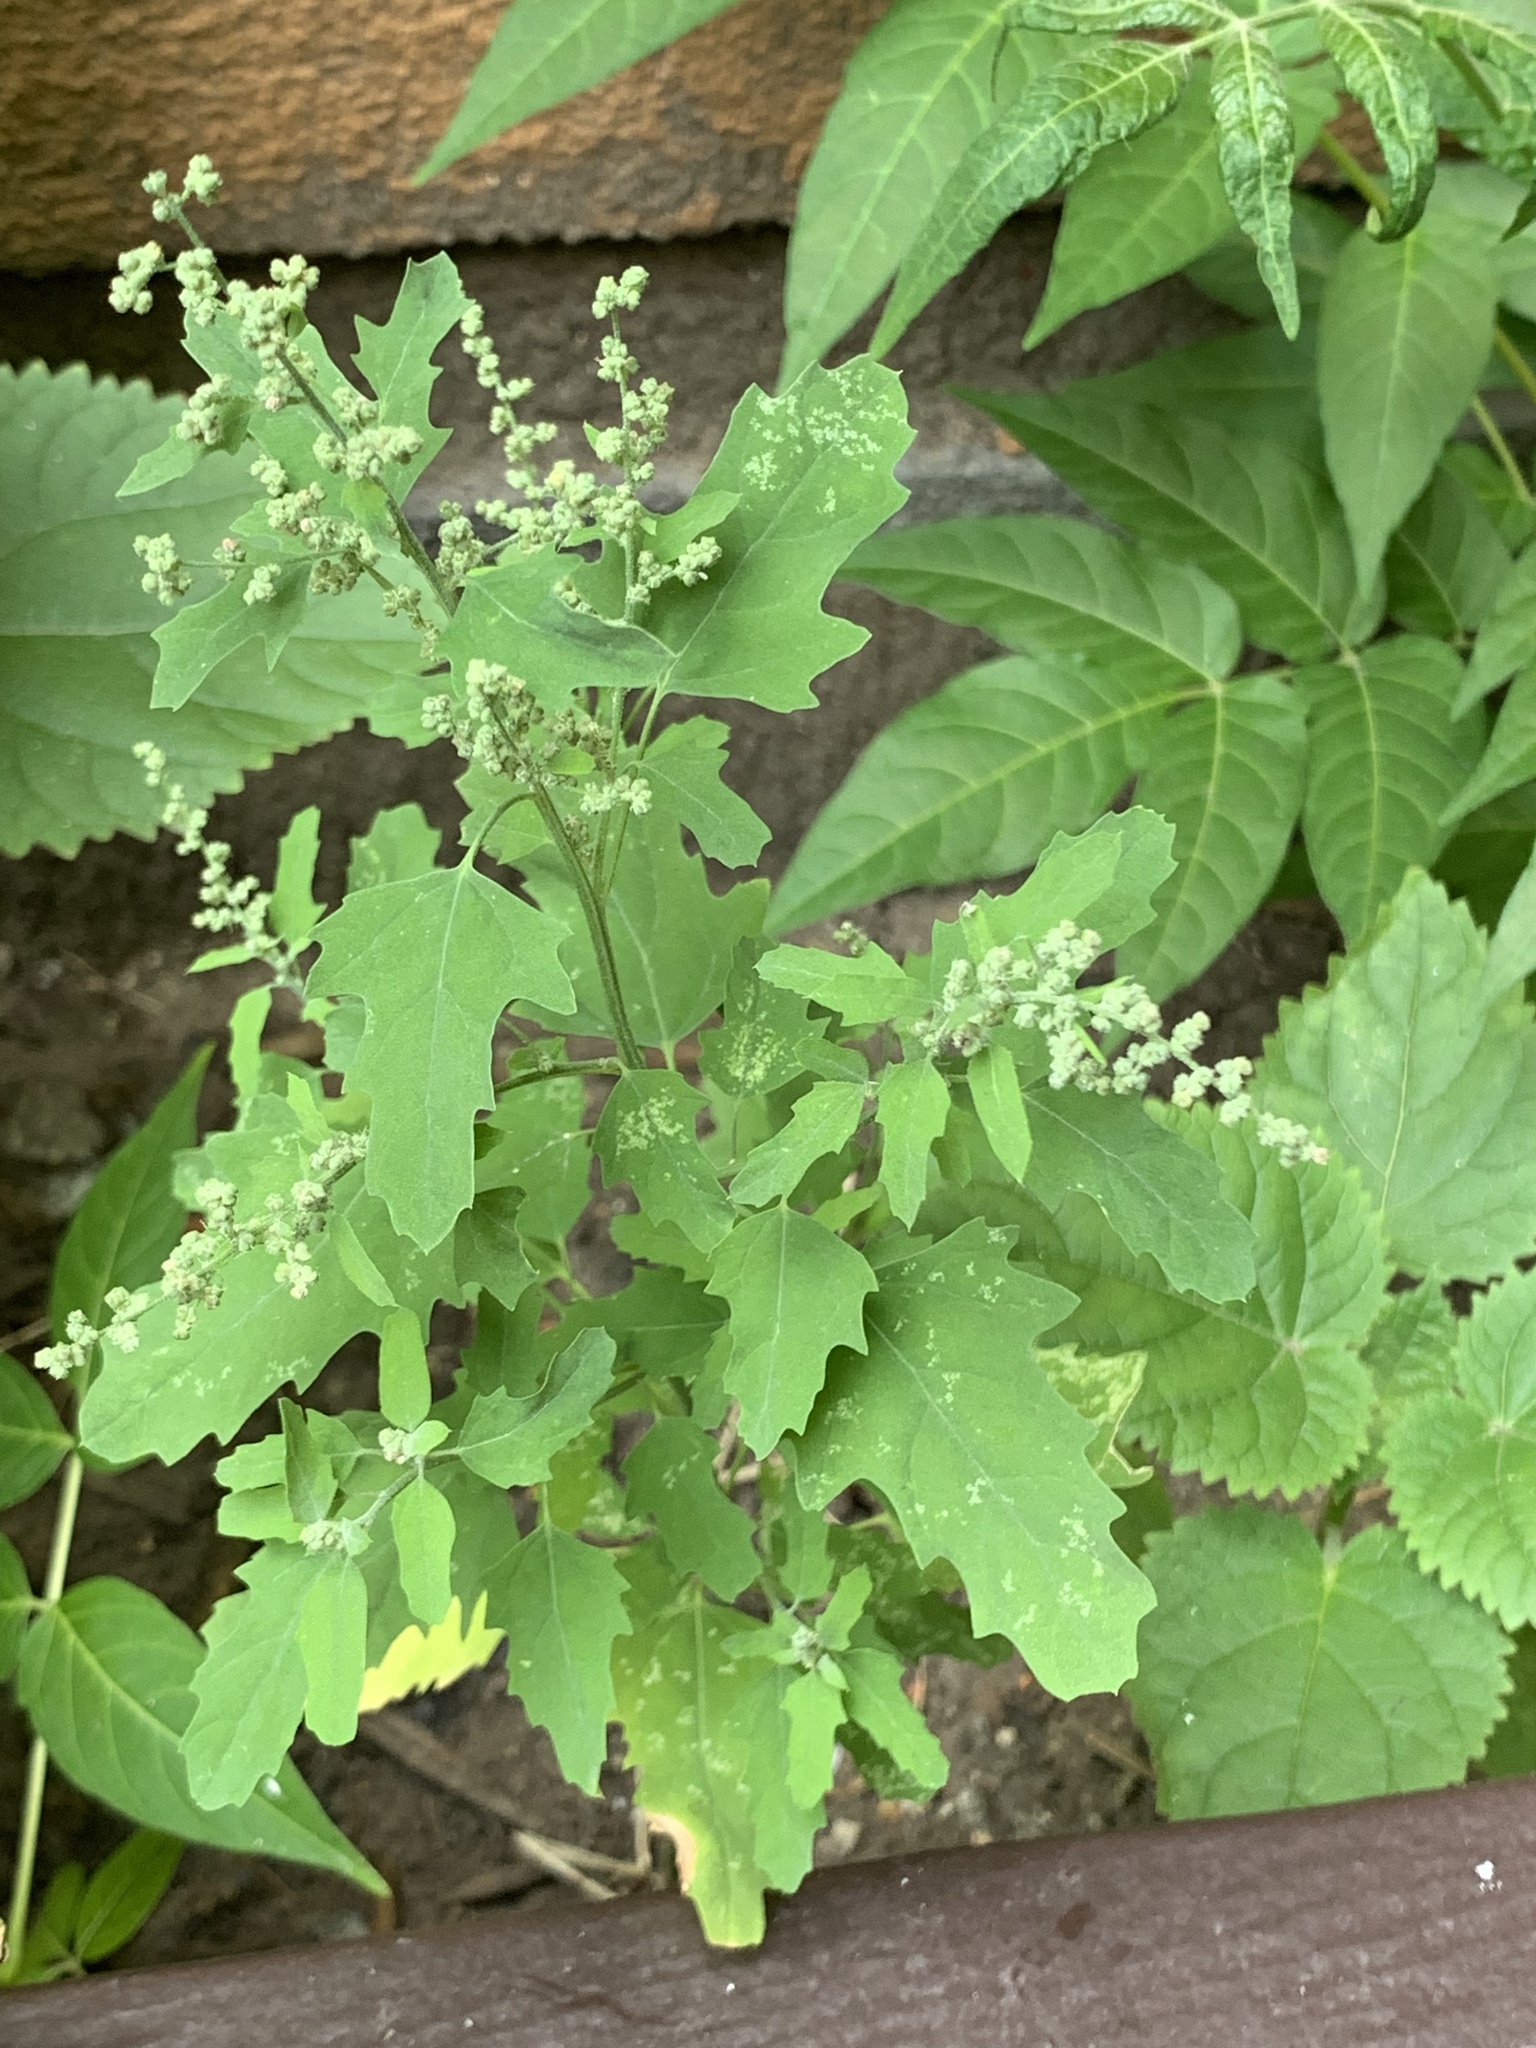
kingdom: Plantae
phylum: Tracheophyta
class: Magnoliopsida
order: Caryophyllales
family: Amaranthaceae
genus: Chenopodium
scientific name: Chenopodium album
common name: Fat-hen
